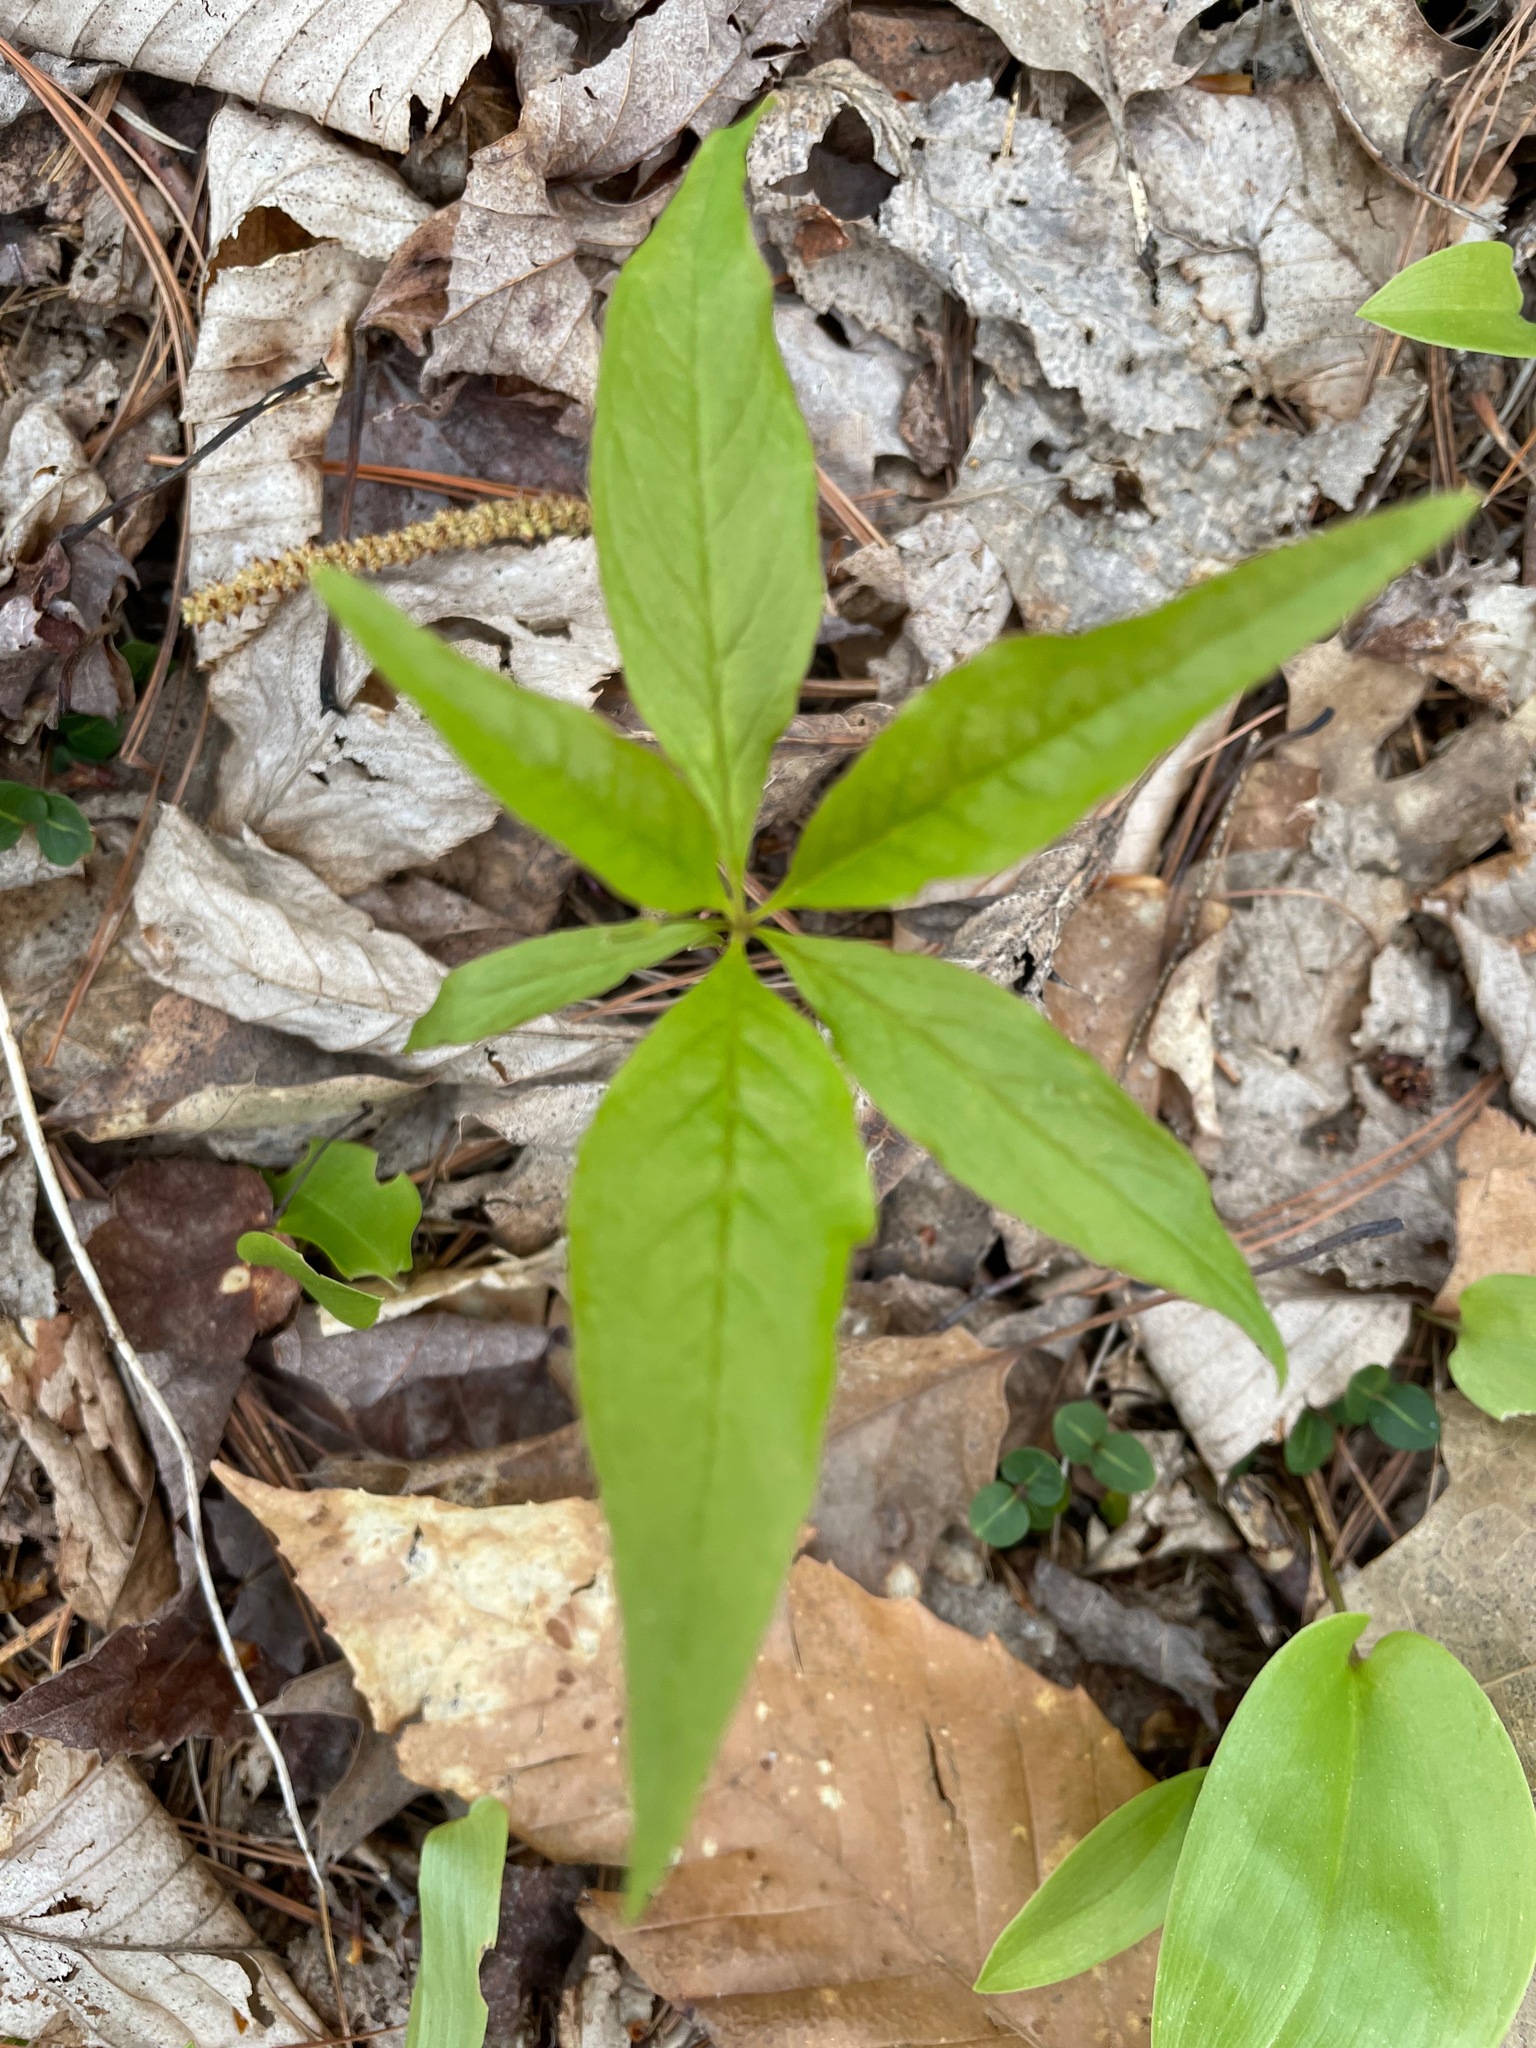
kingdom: Plantae
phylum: Tracheophyta
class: Magnoliopsida
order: Ericales
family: Primulaceae
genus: Lysimachia
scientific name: Lysimachia borealis
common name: American starflower
